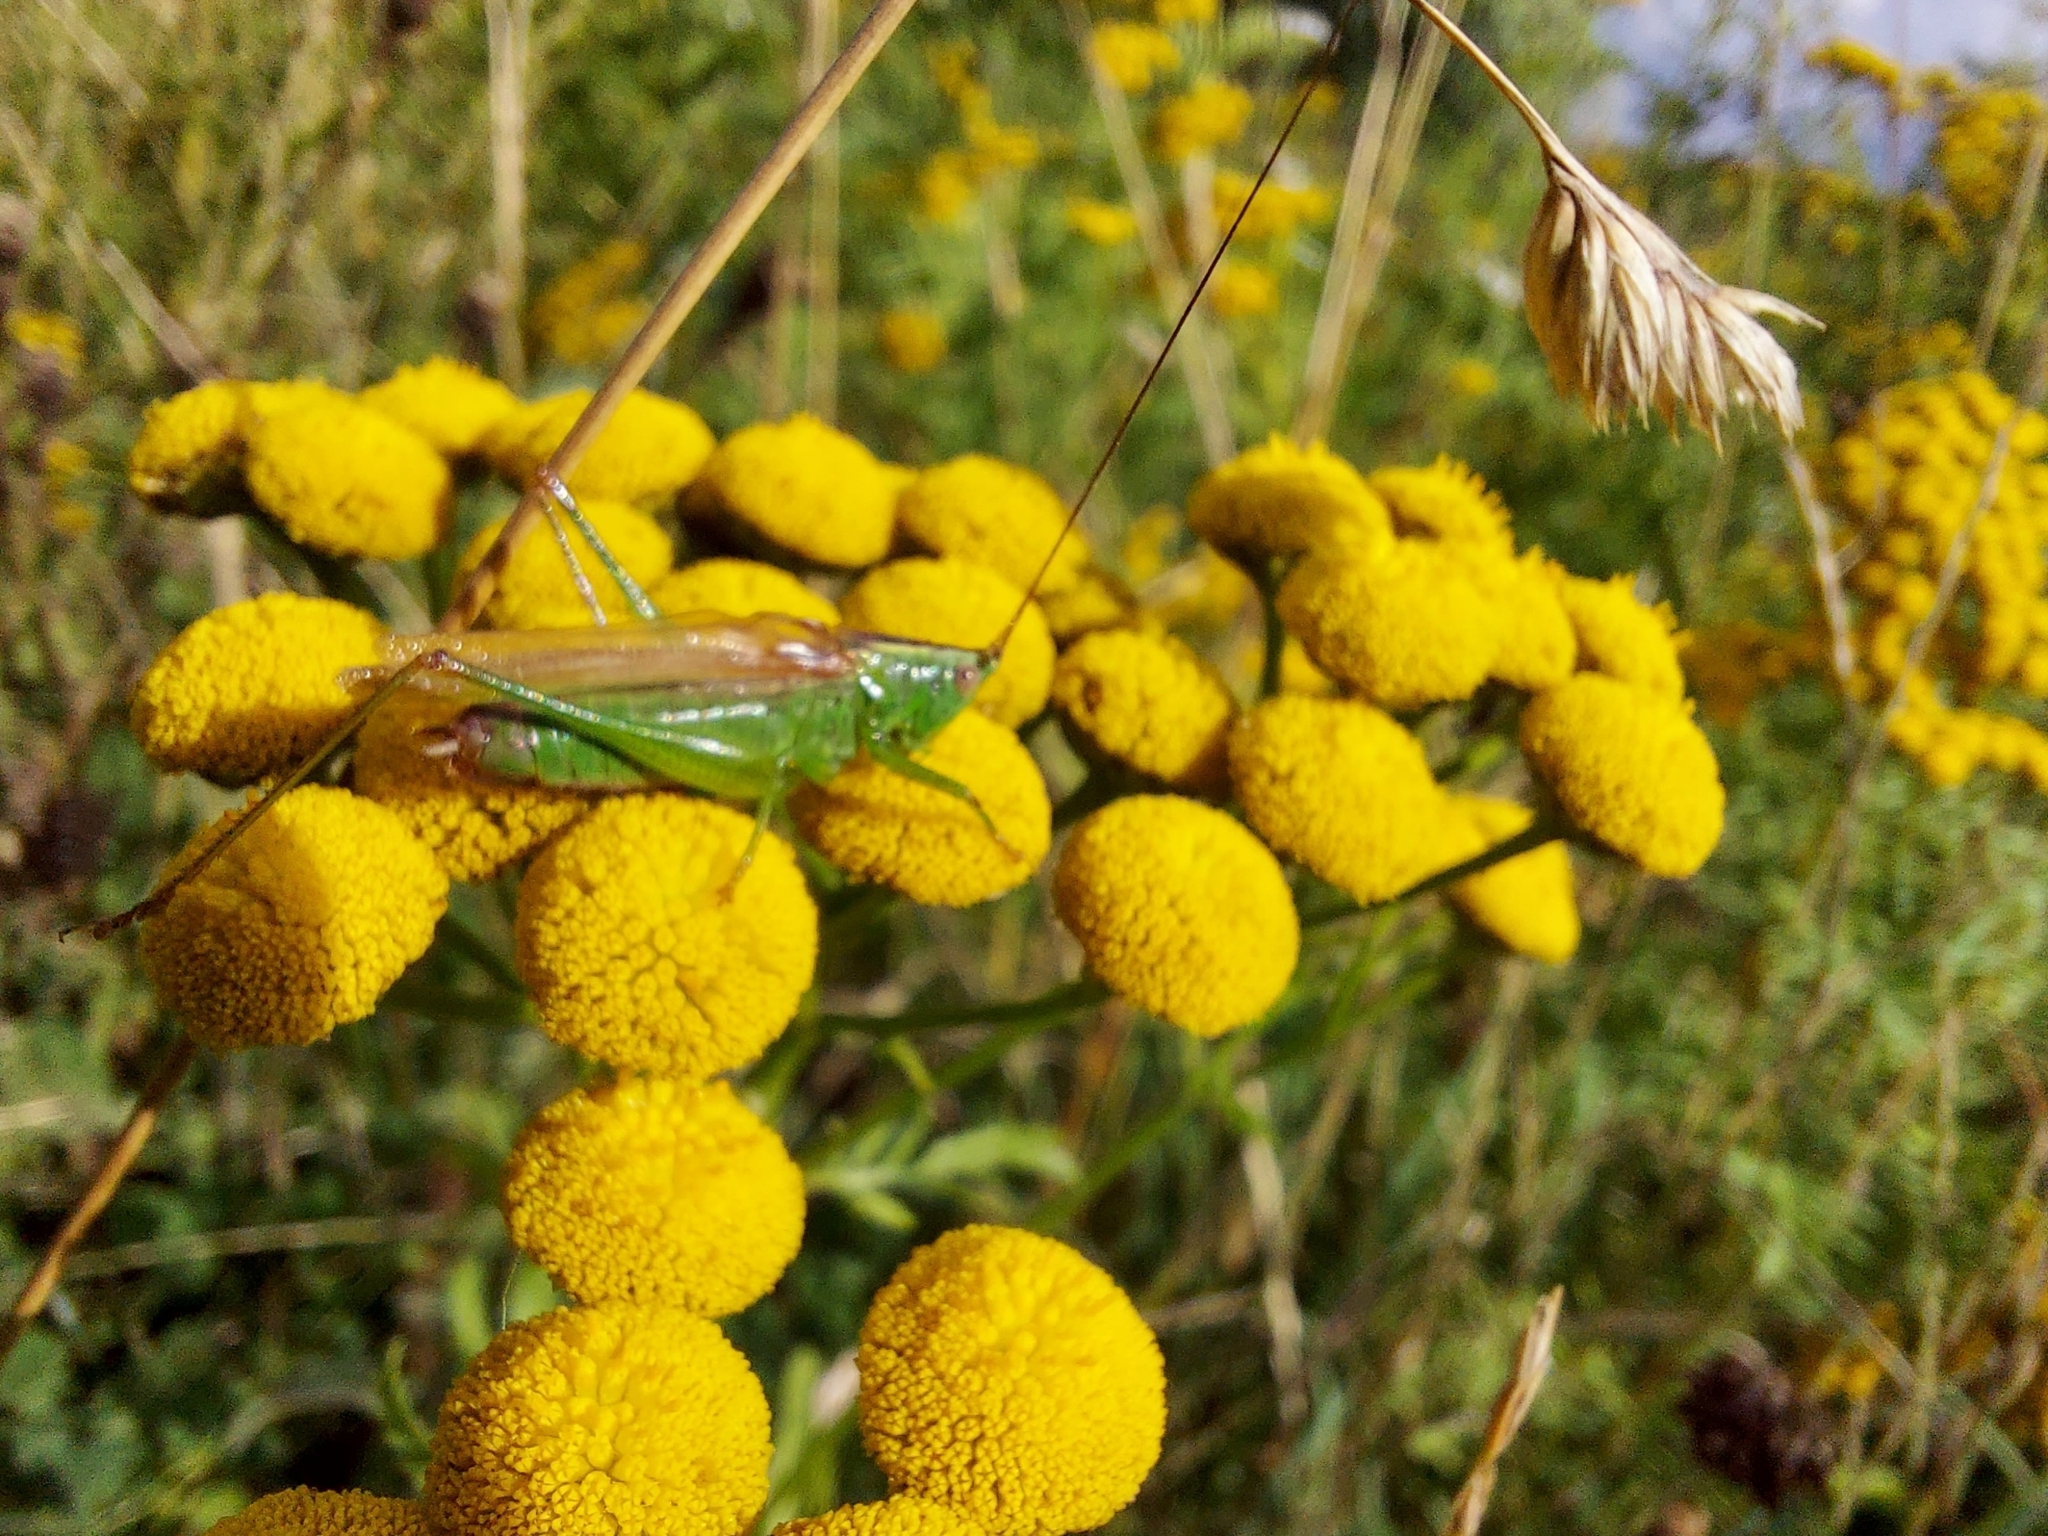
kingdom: Animalia
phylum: Arthropoda
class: Insecta
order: Orthoptera
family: Tettigoniidae
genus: Conocephalus
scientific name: Conocephalus fuscus
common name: Long-winged conehead
